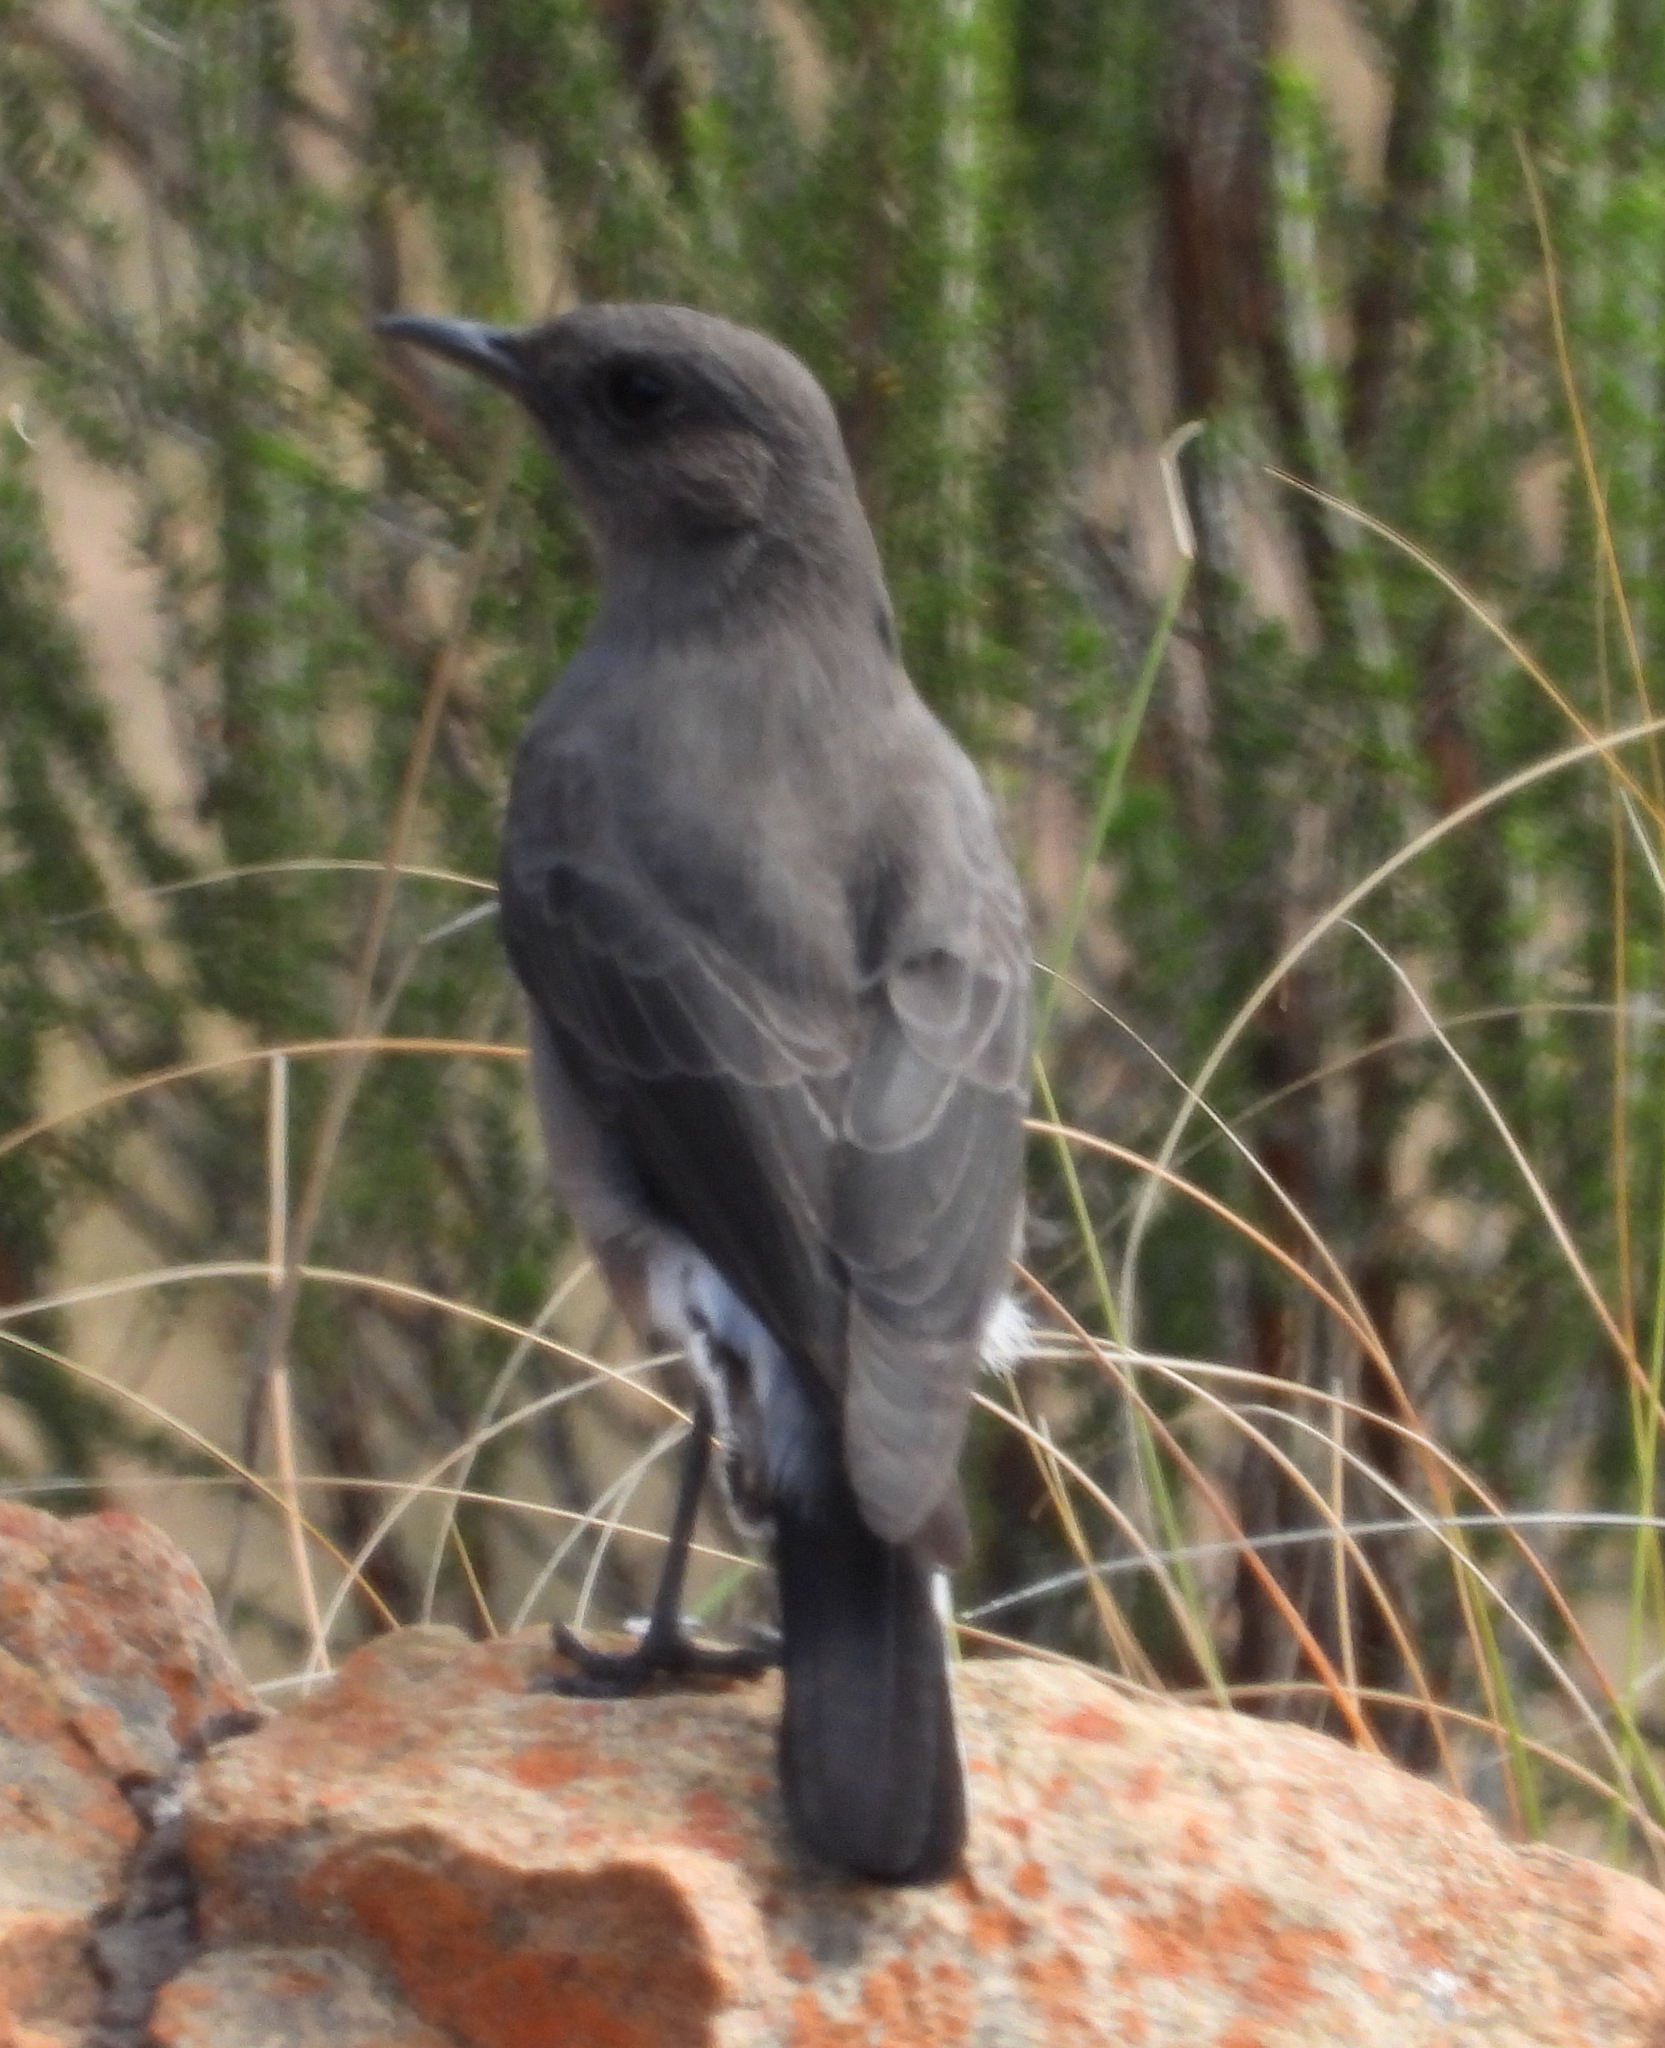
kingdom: Animalia
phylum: Chordata
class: Aves
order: Passeriformes
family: Muscicapidae
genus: Oenanthe
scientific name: Oenanthe monticola
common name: Mountain wheatear
